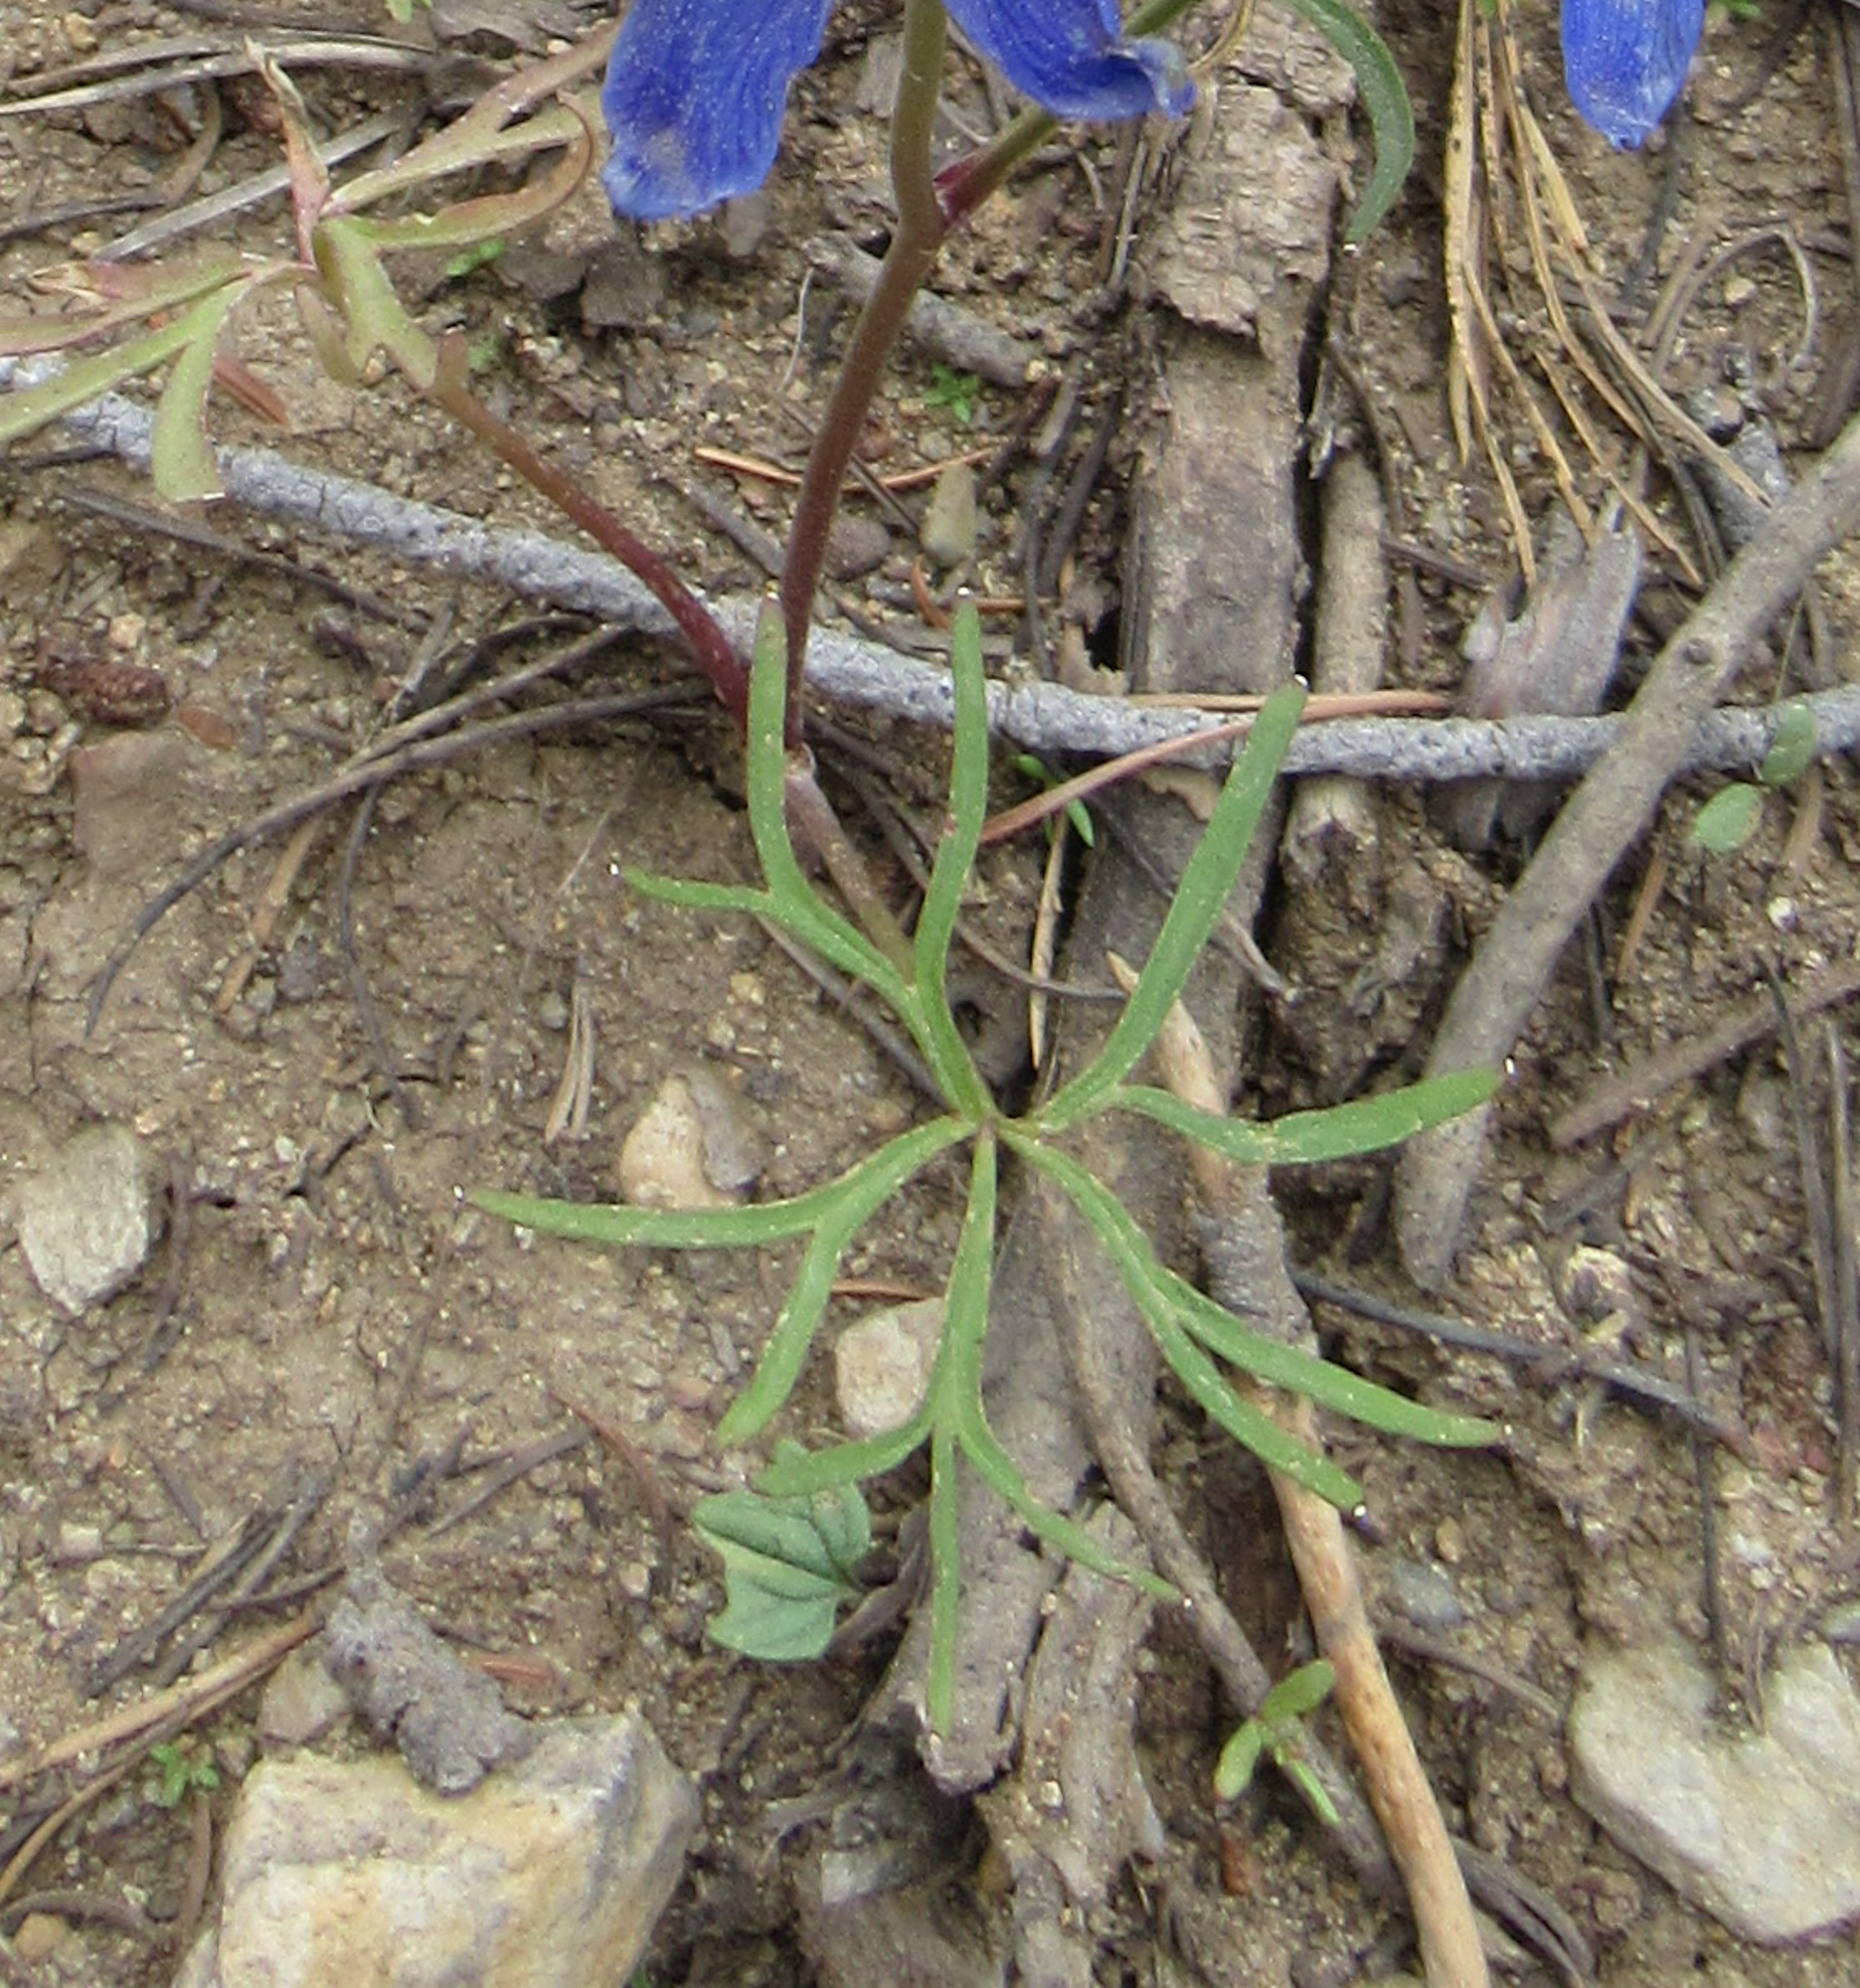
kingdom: Plantae
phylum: Tracheophyta
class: Magnoliopsida
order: Ranunculales
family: Ranunculaceae
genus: Delphinium
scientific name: Delphinium nuttallianum
